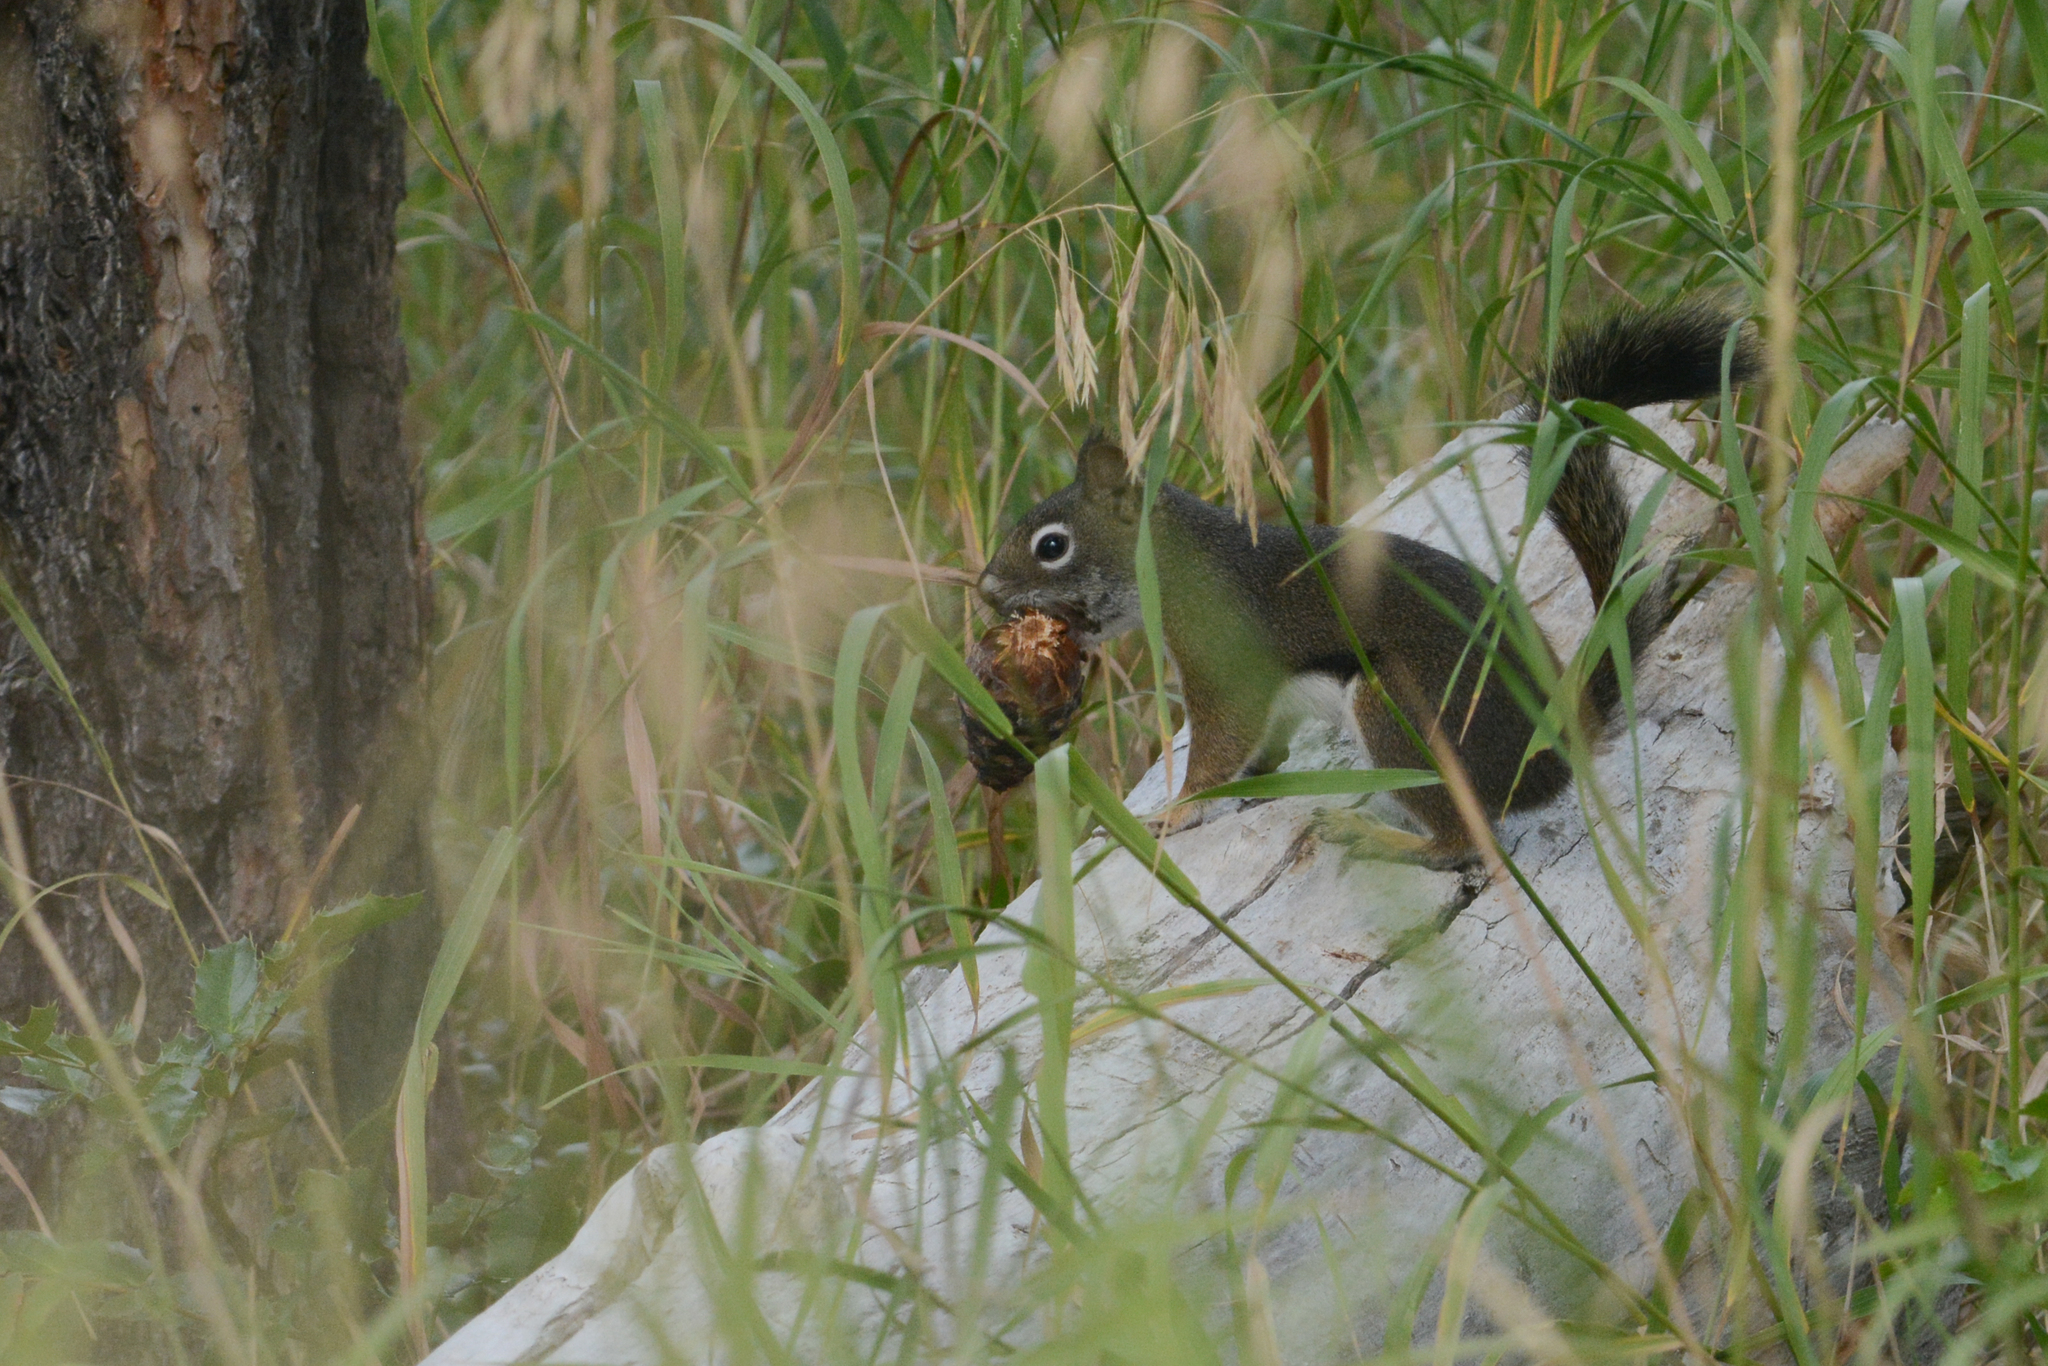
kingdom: Animalia
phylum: Chordata
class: Mammalia
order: Rodentia
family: Sciuridae
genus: Tamiasciurus
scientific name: Tamiasciurus hudsonicus
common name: Red squirrel
